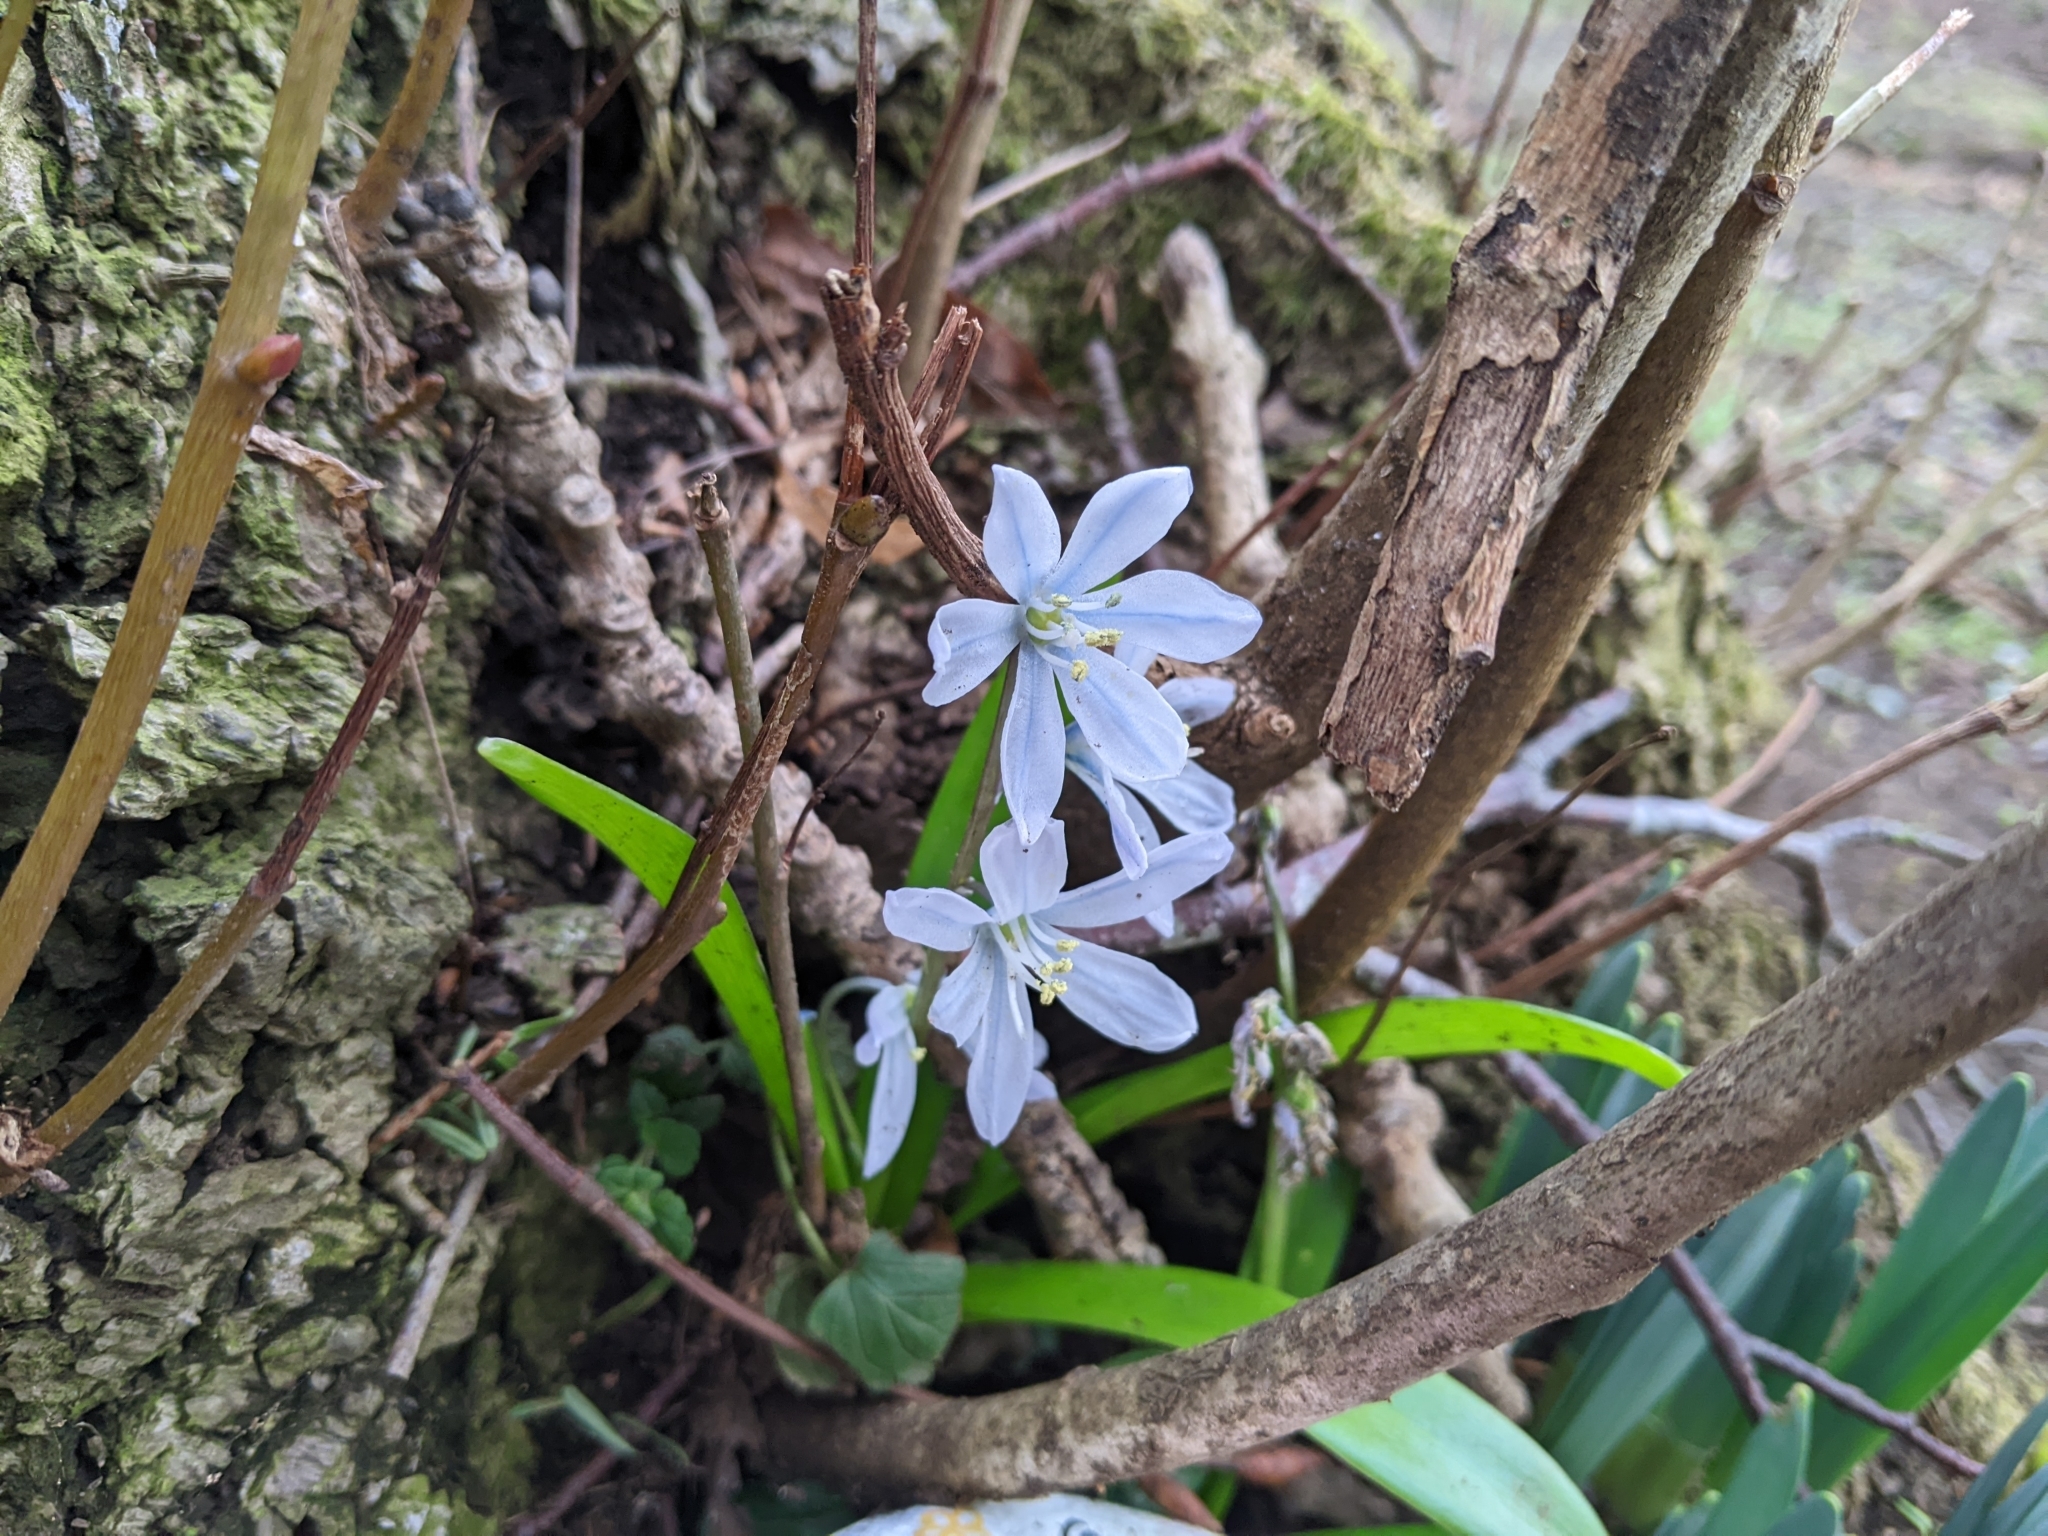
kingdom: Plantae
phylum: Tracheophyta
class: Liliopsida
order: Asparagales
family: Asparagaceae
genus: Scilla
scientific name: Scilla mischtschenkoana
